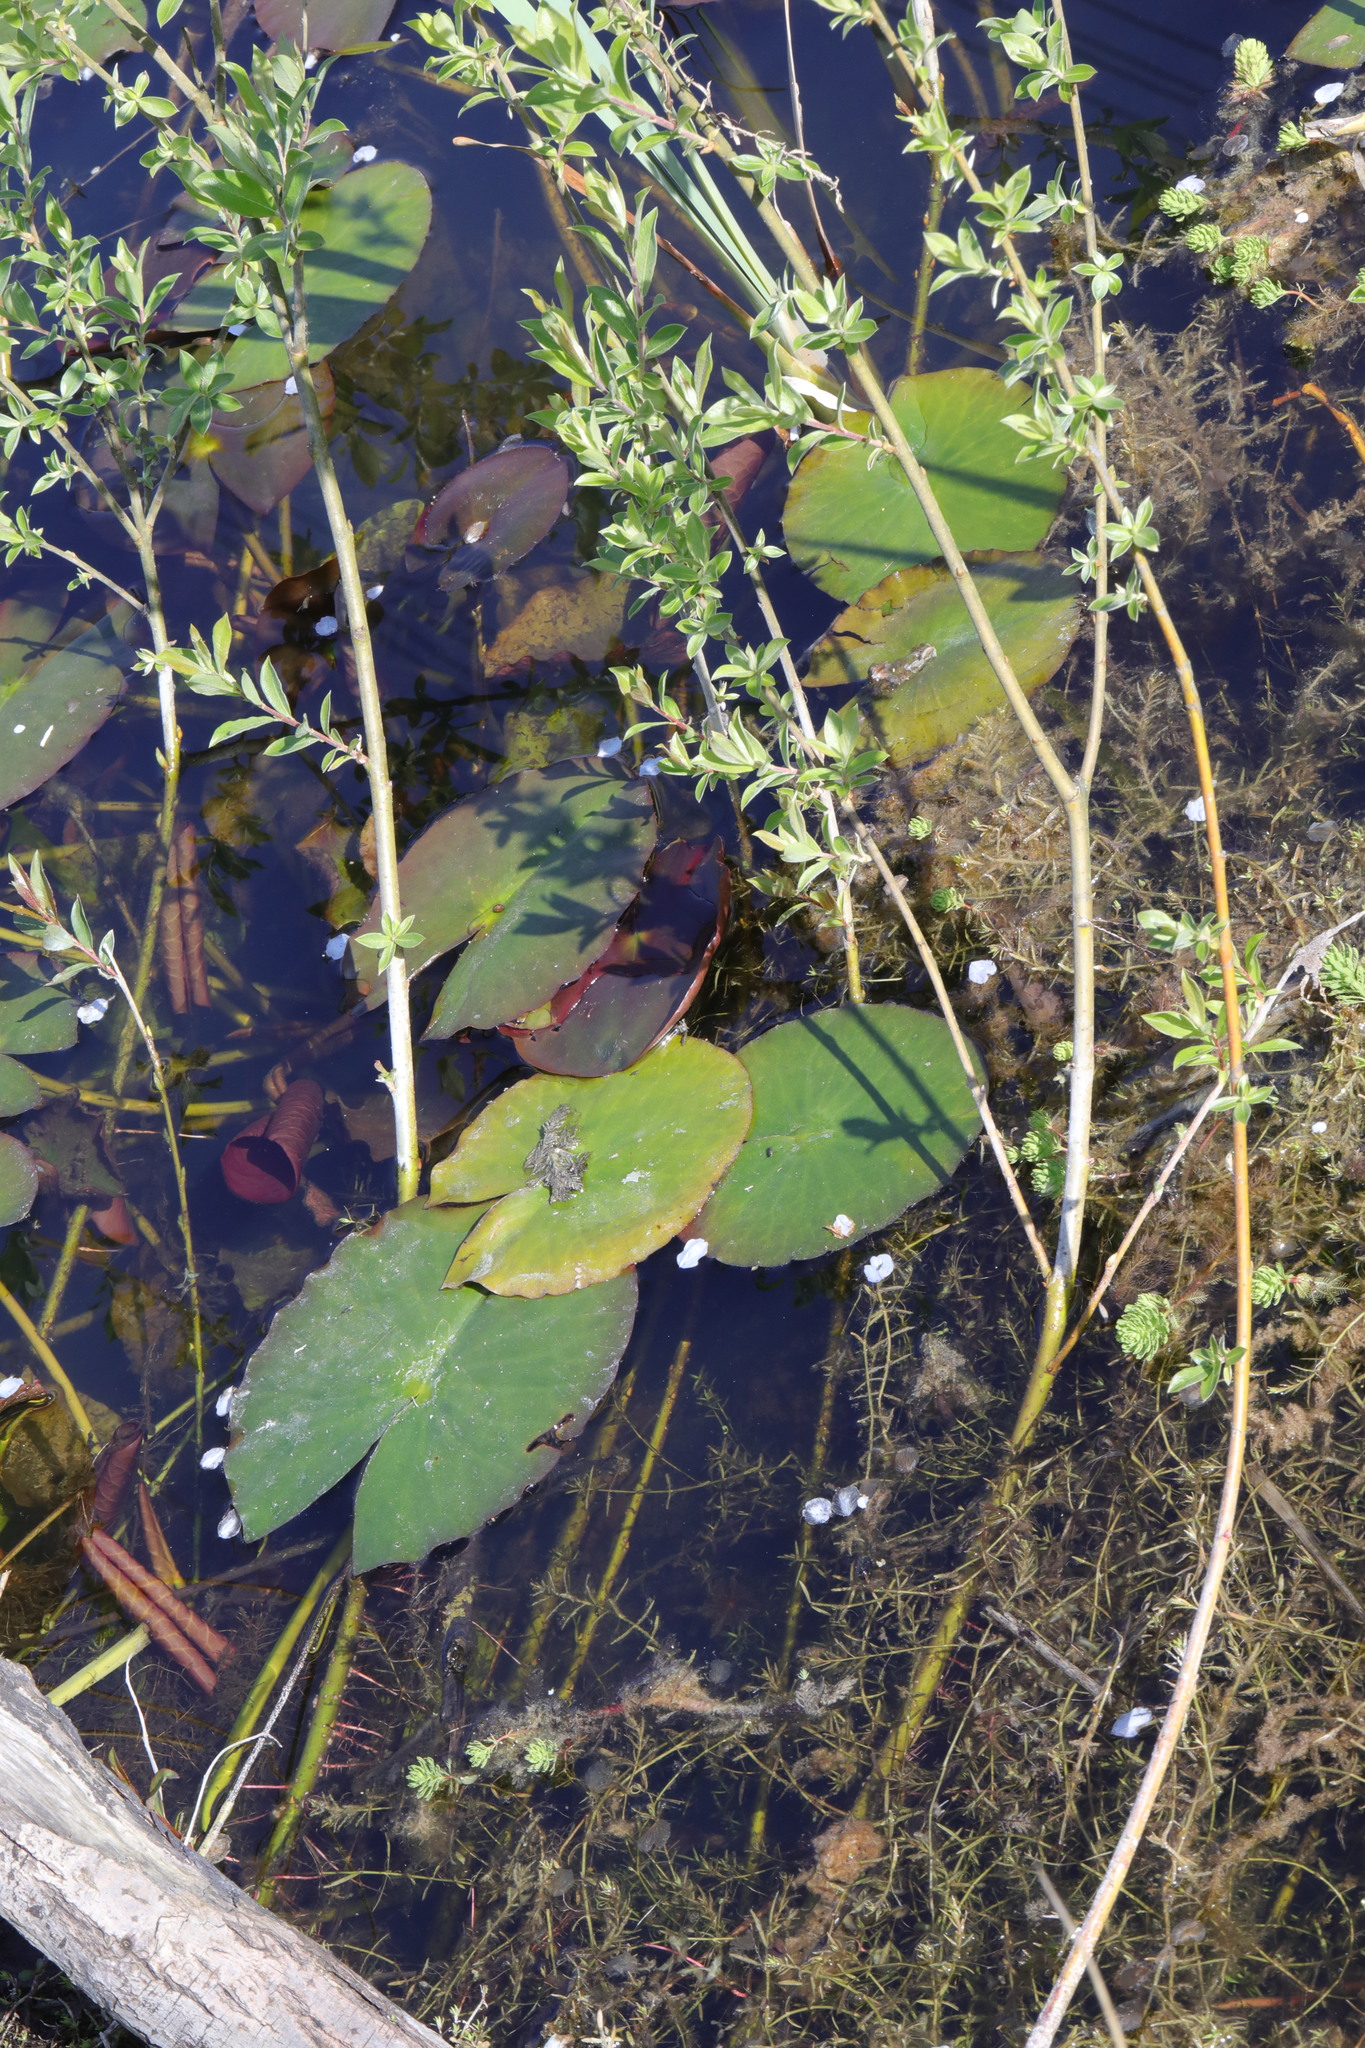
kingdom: Plantae
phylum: Tracheophyta
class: Magnoliopsida
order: Nymphaeales
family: Nymphaeaceae
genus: Nuphar
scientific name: Nuphar lutea
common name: Yellow water-lily
